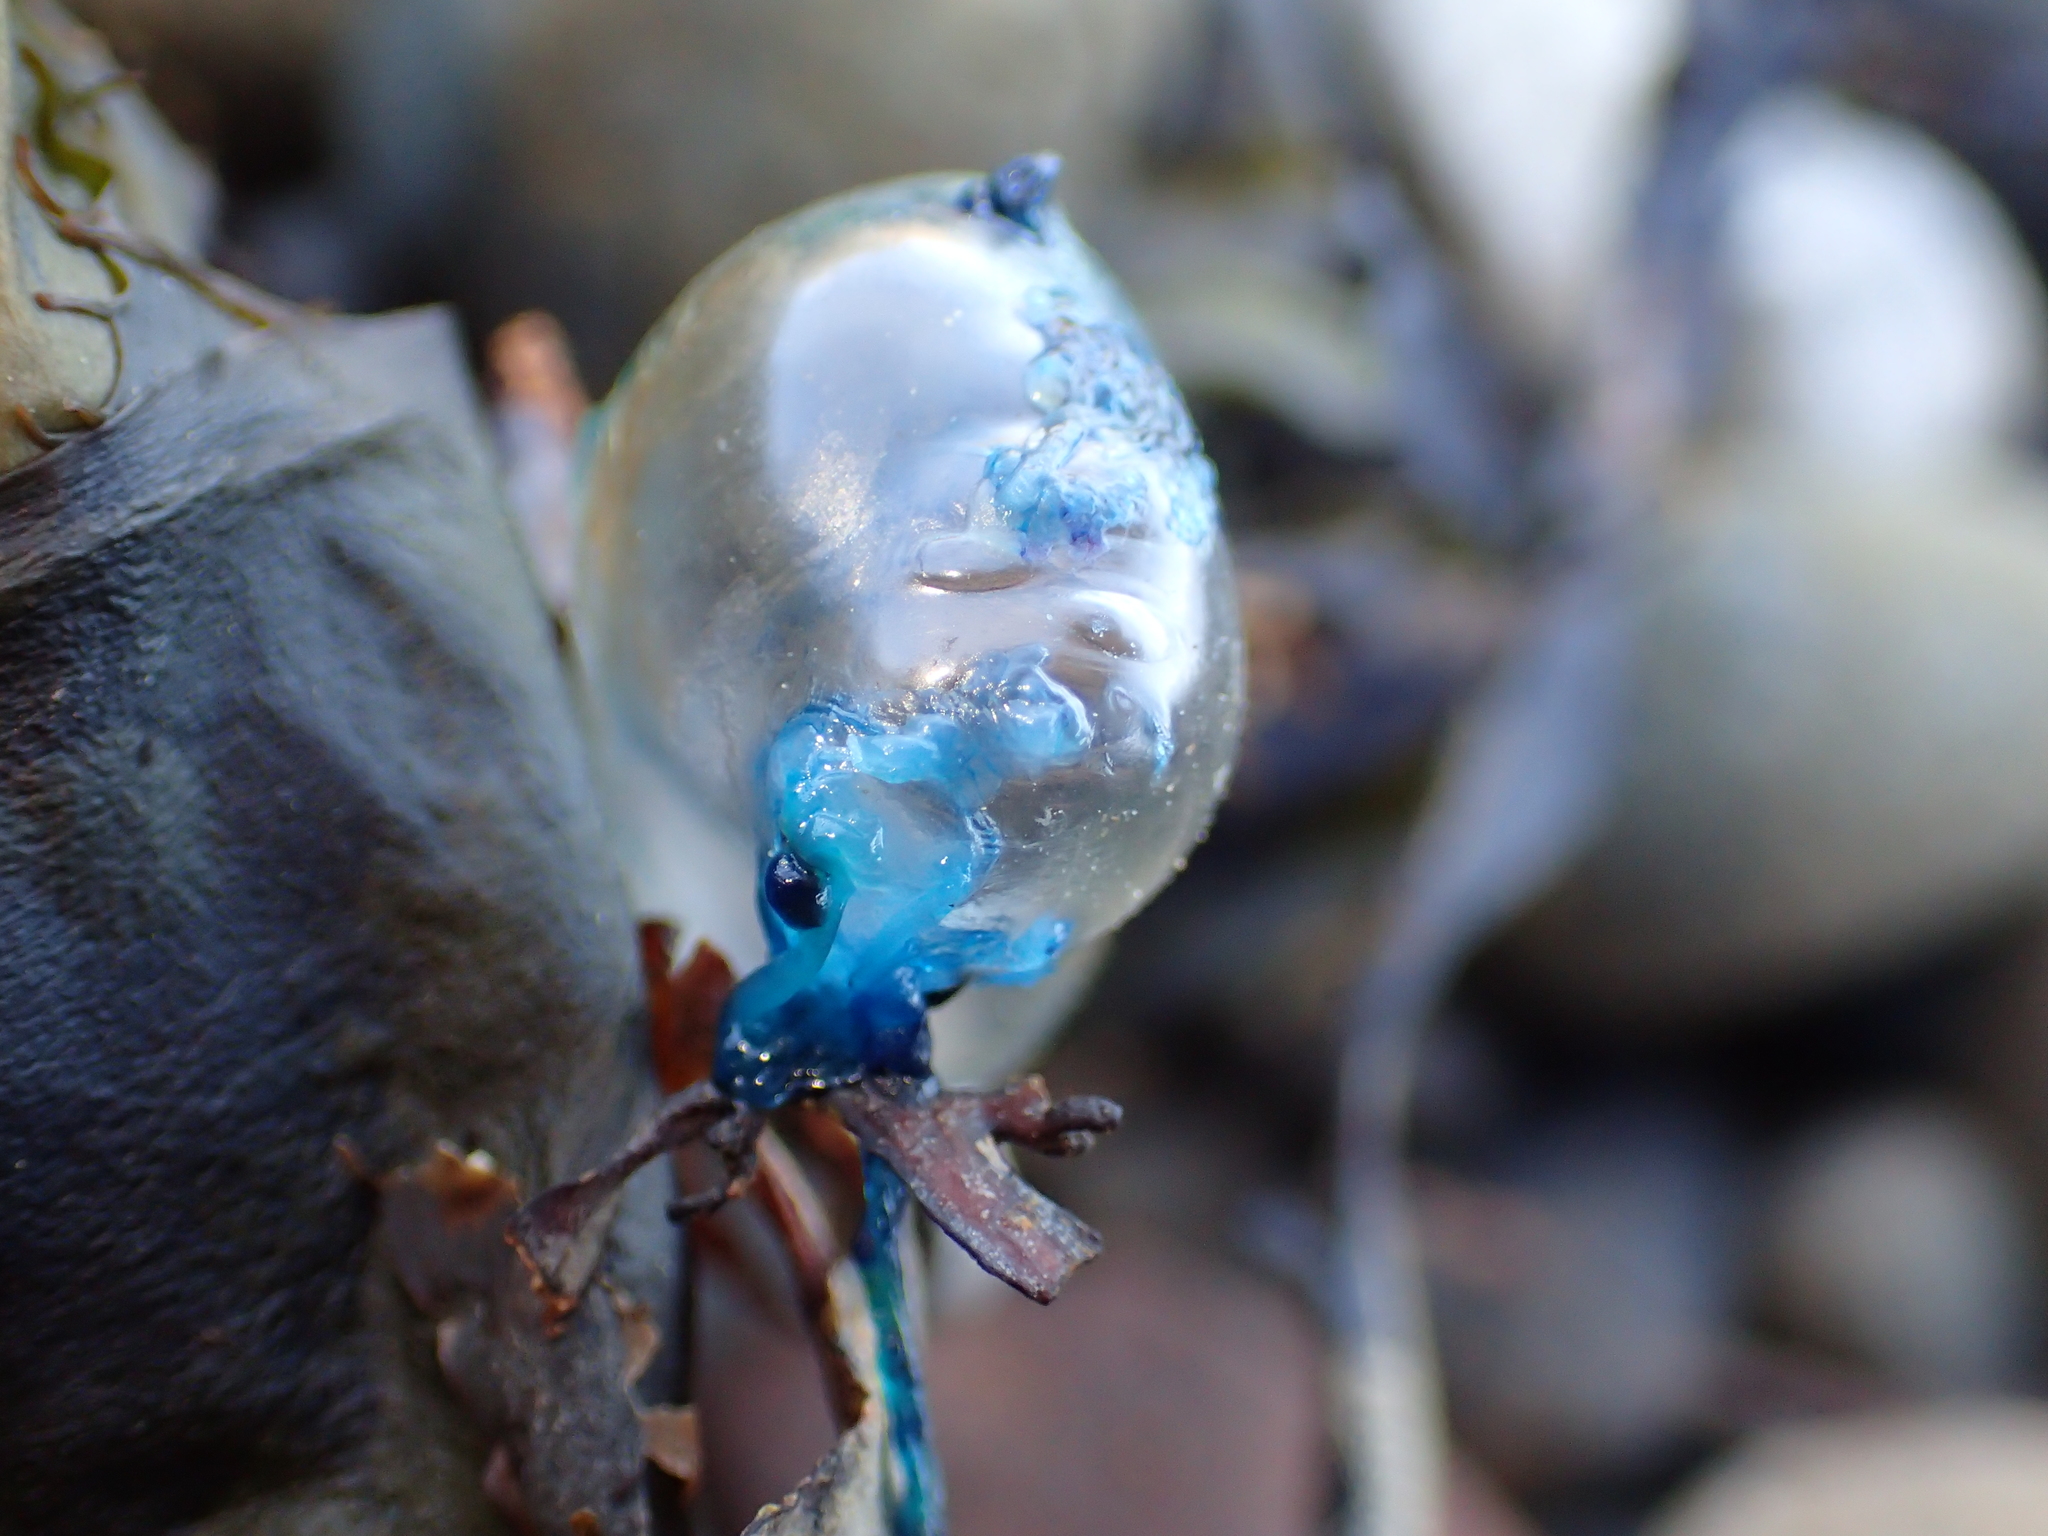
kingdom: Animalia
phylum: Cnidaria
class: Hydrozoa
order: Siphonophorae
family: Physaliidae
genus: Physalia
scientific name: Physalia
